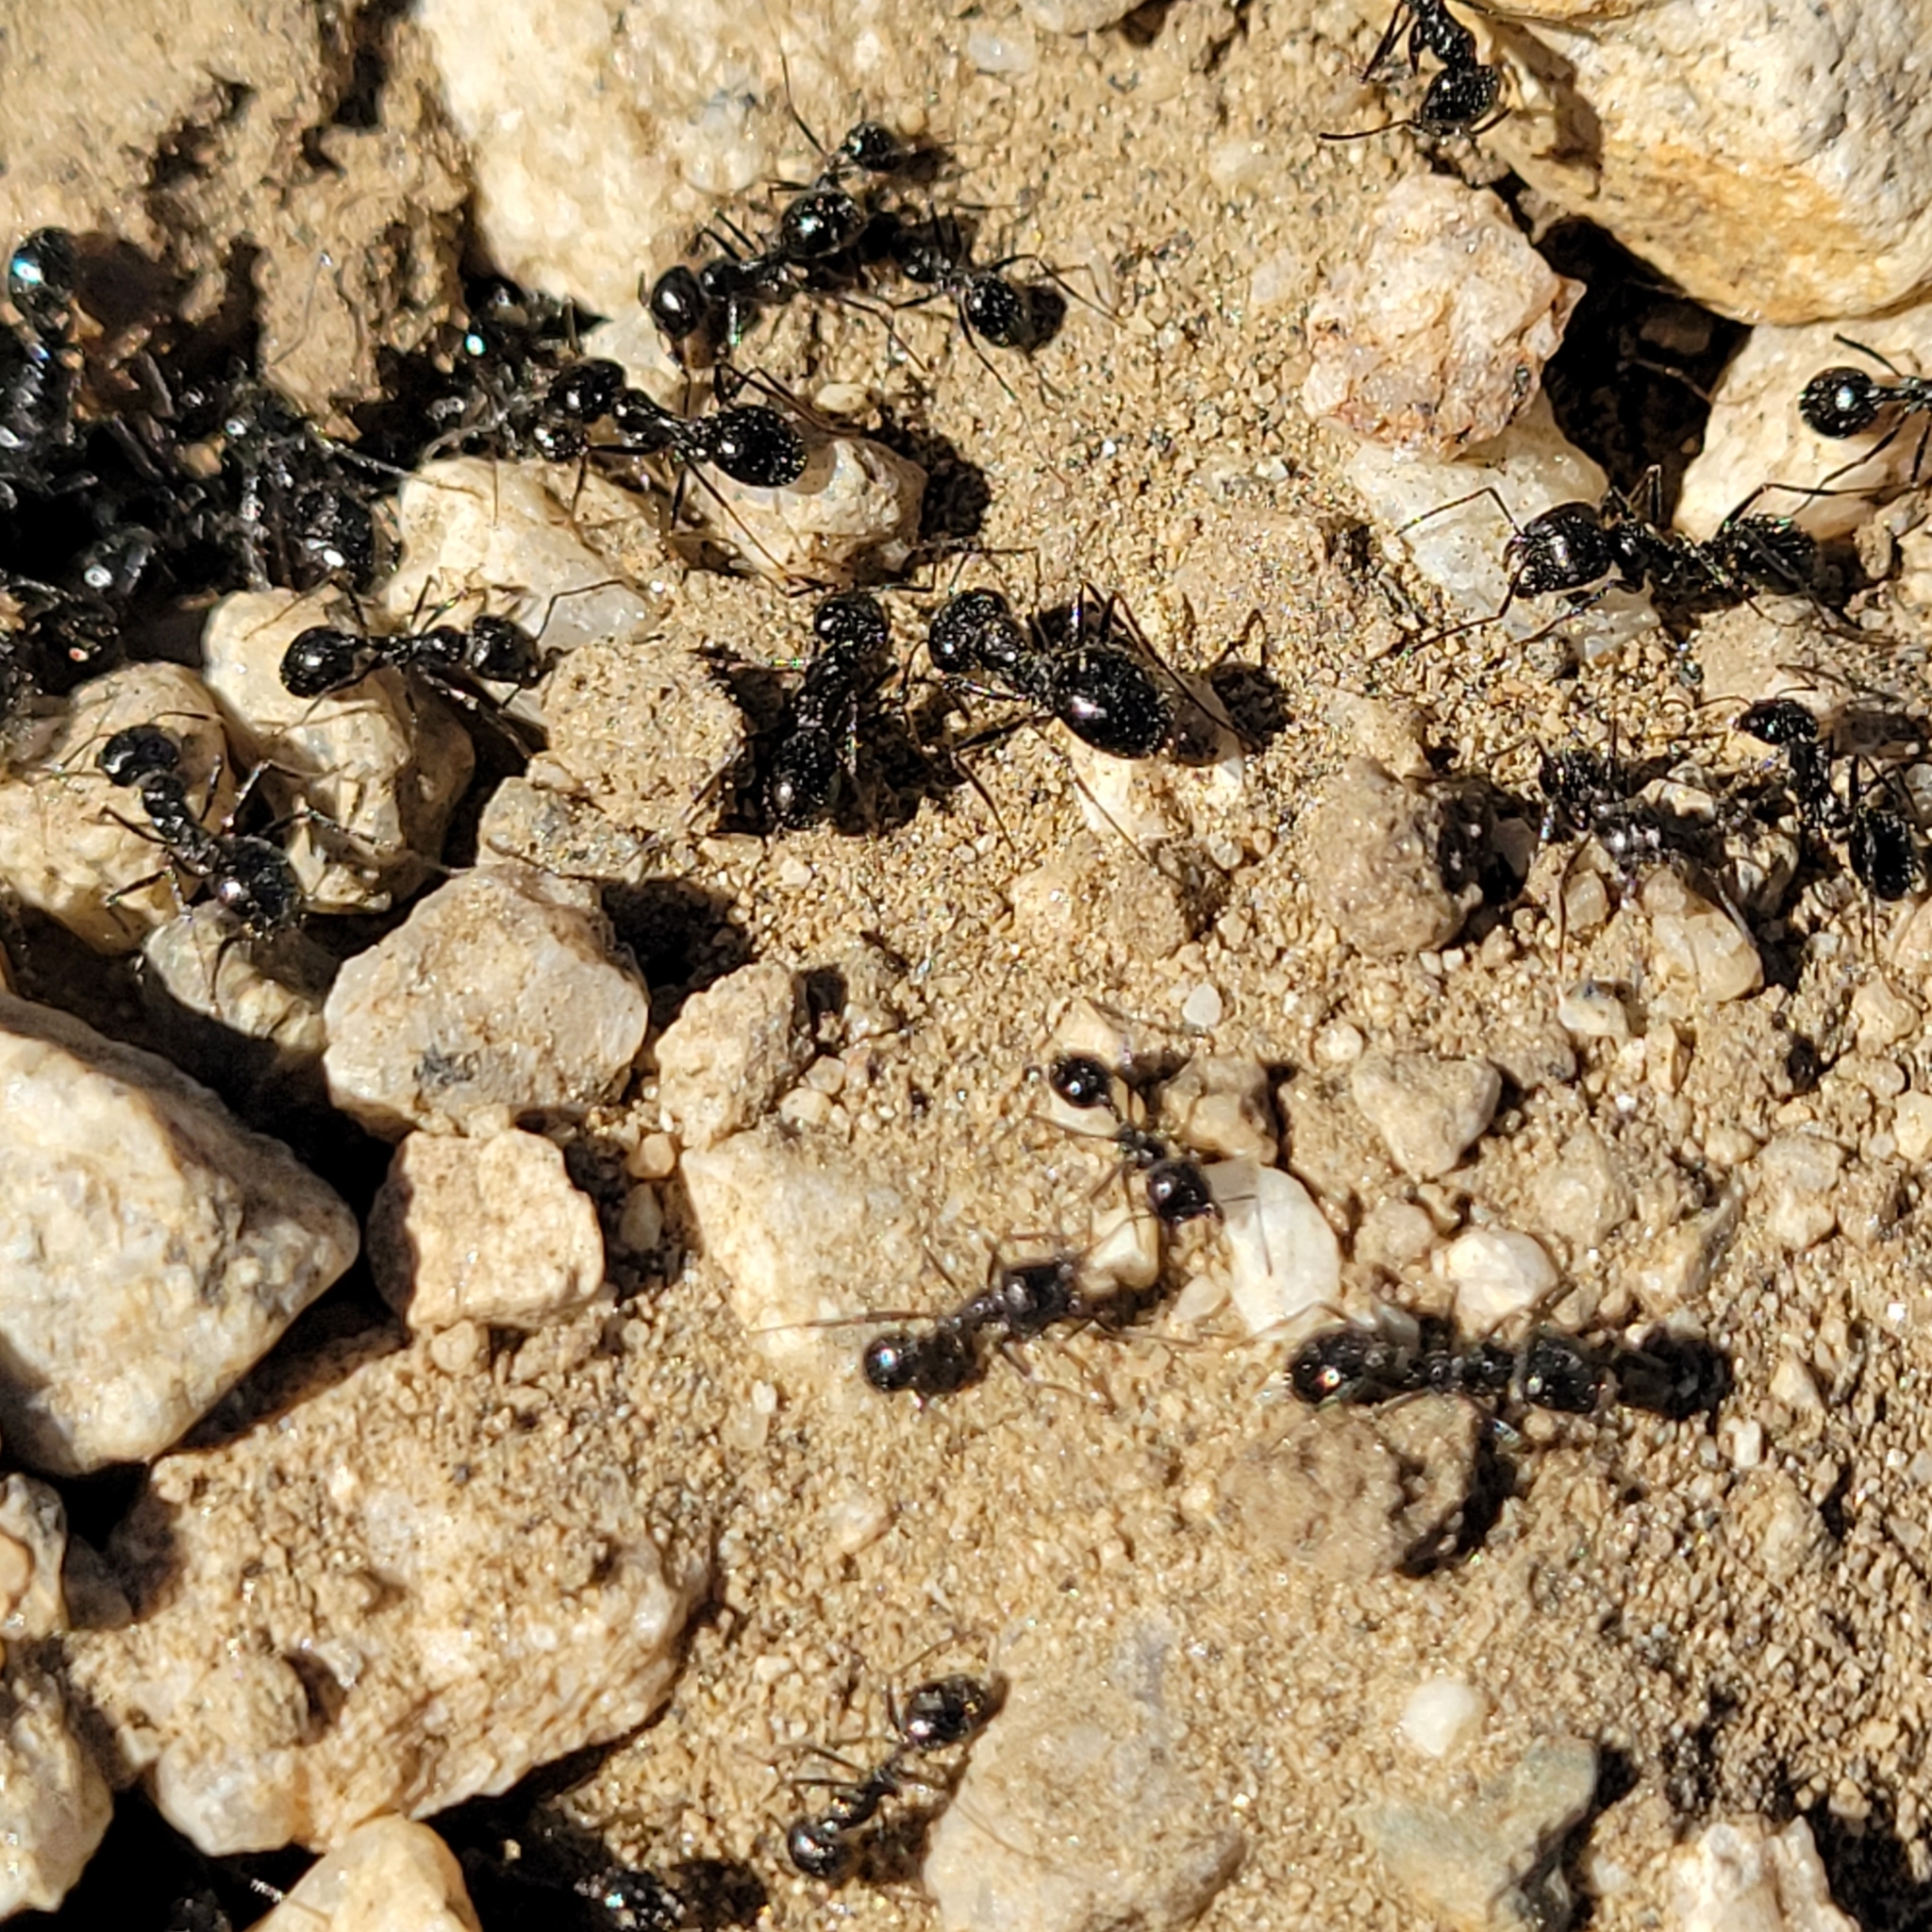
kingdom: Animalia
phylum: Arthropoda
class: Insecta
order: Hymenoptera
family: Formicidae
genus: Messor
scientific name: Messor pergandei
